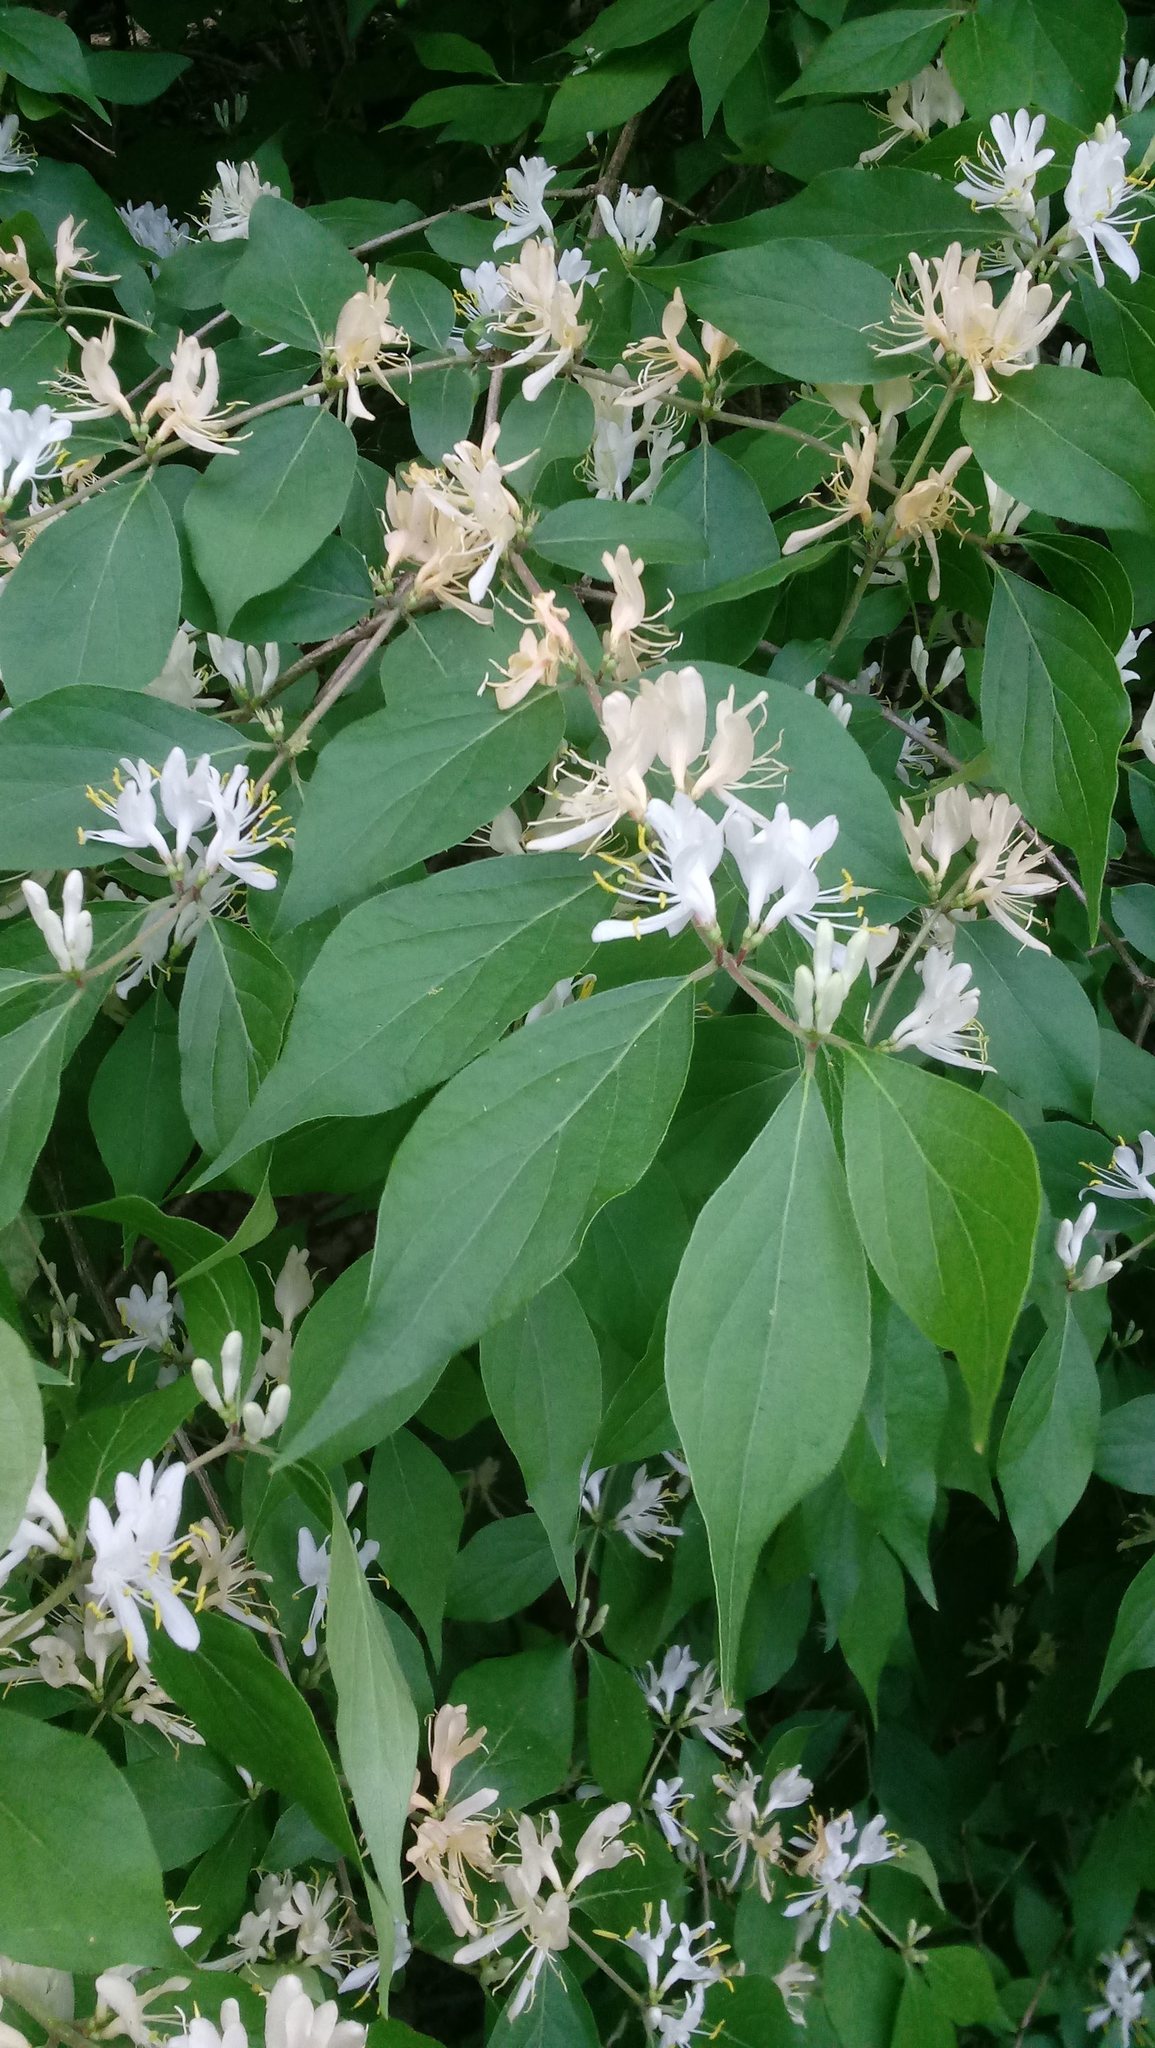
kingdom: Plantae
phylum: Tracheophyta
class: Magnoliopsida
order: Dipsacales
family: Caprifoliaceae
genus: Lonicera
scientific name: Lonicera maackii
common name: Amur honeysuckle
